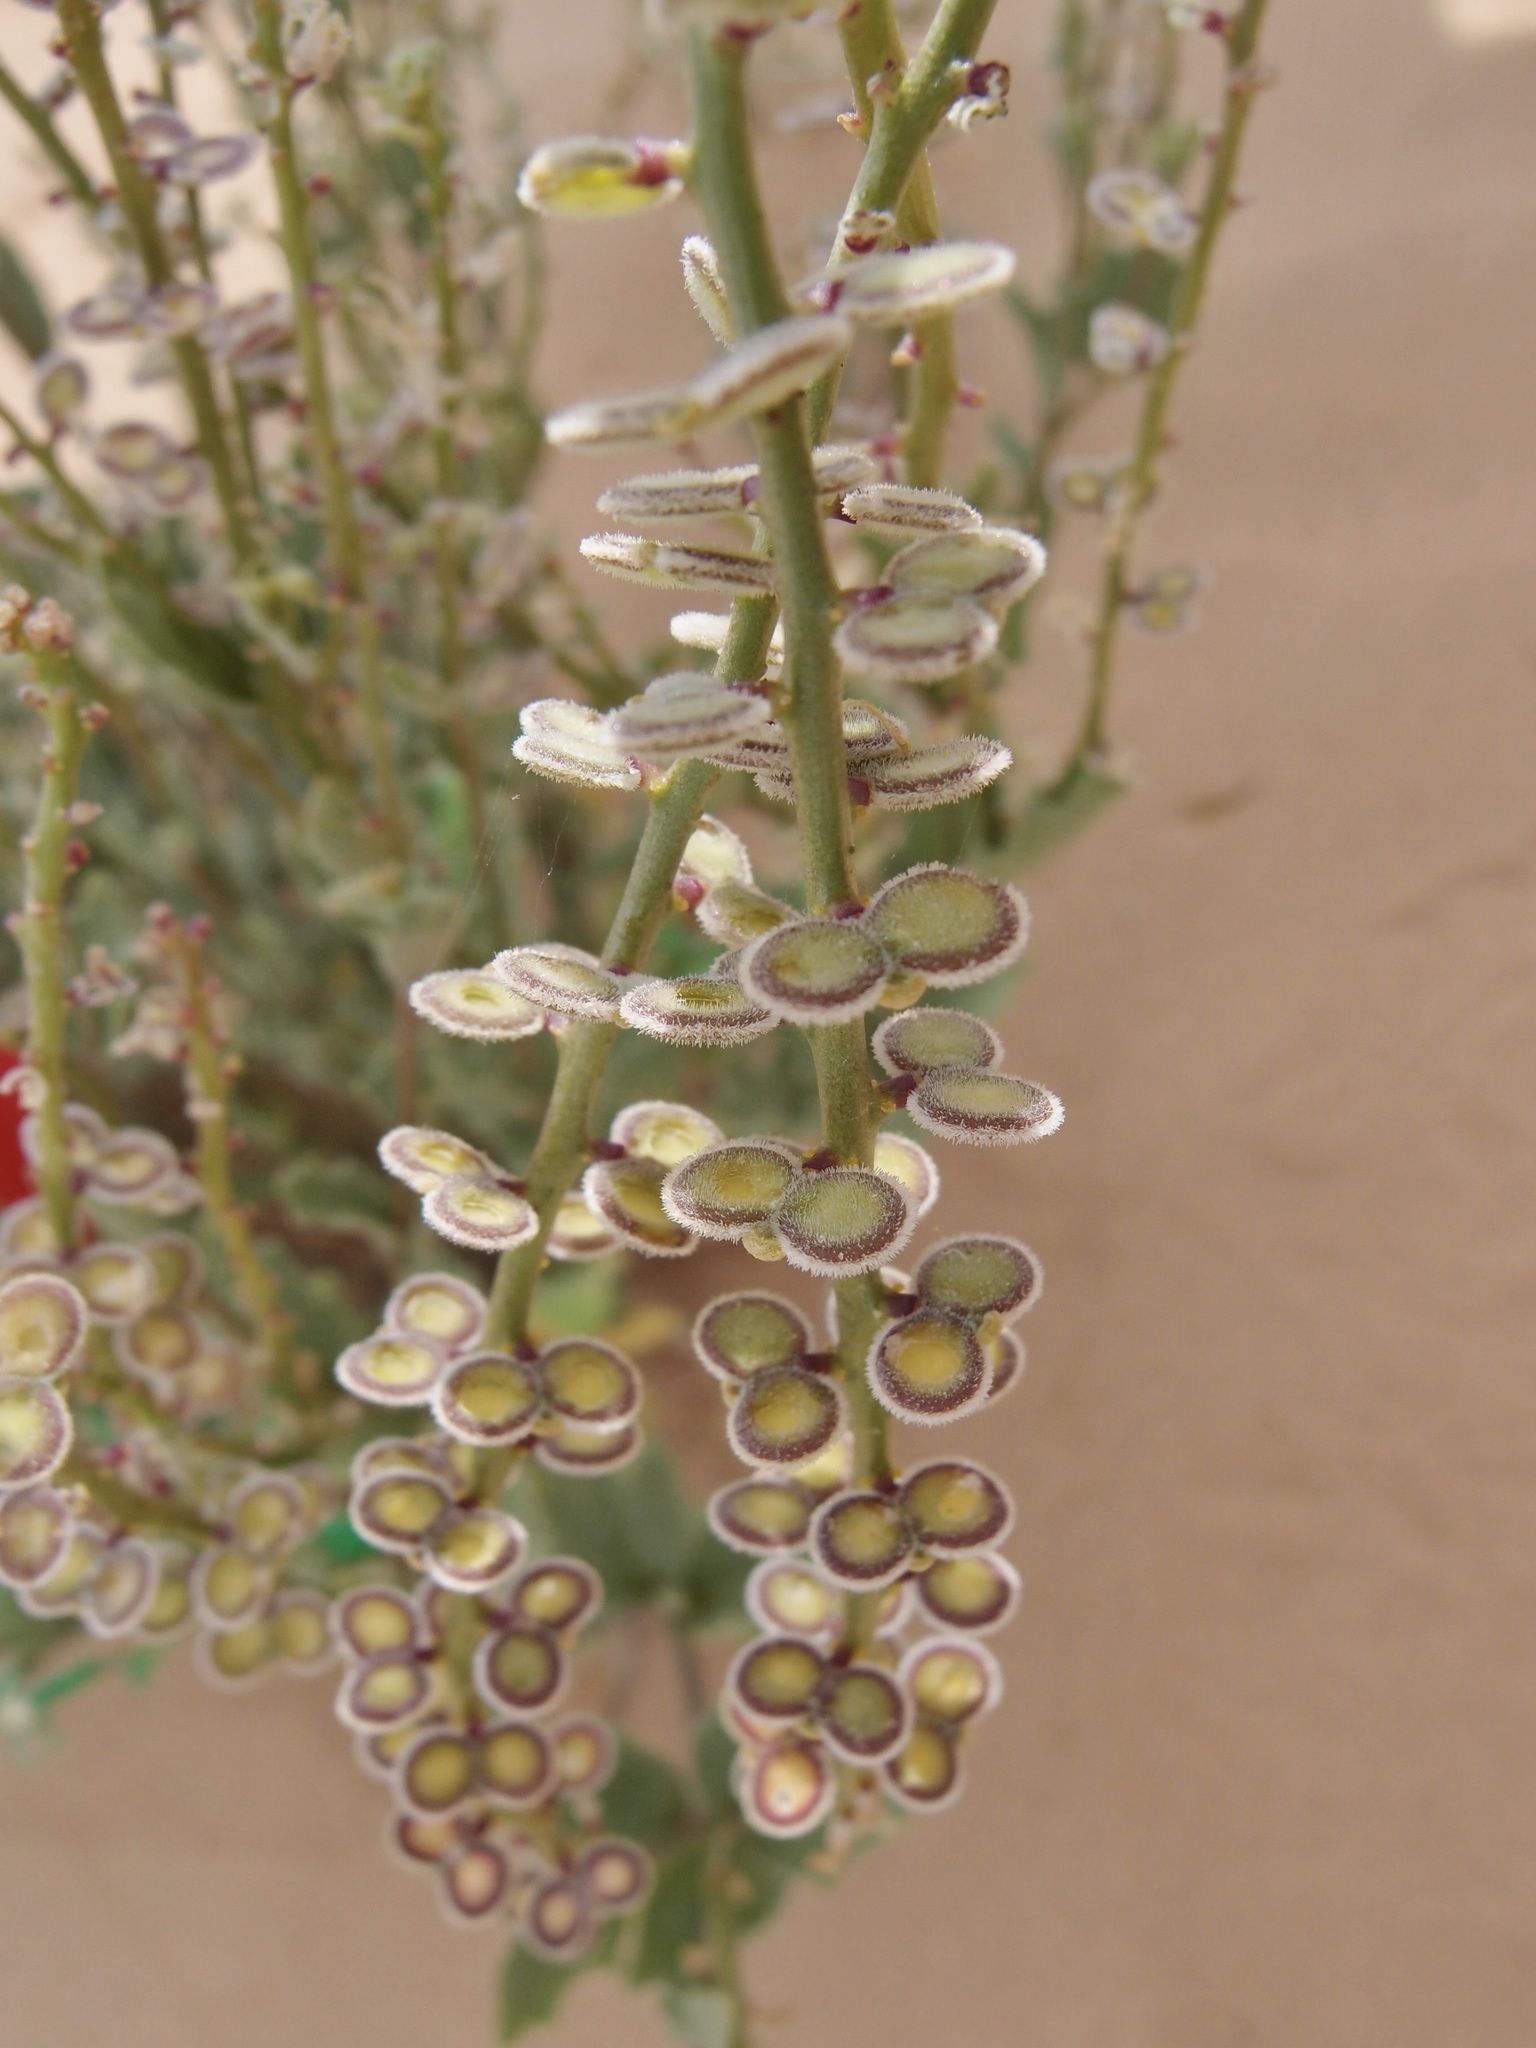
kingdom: Plantae
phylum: Tracheophyta
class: Magnoliopsida
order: Brassicales
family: Brassicaceae
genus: Dithyrea
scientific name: Dithyrea californica
